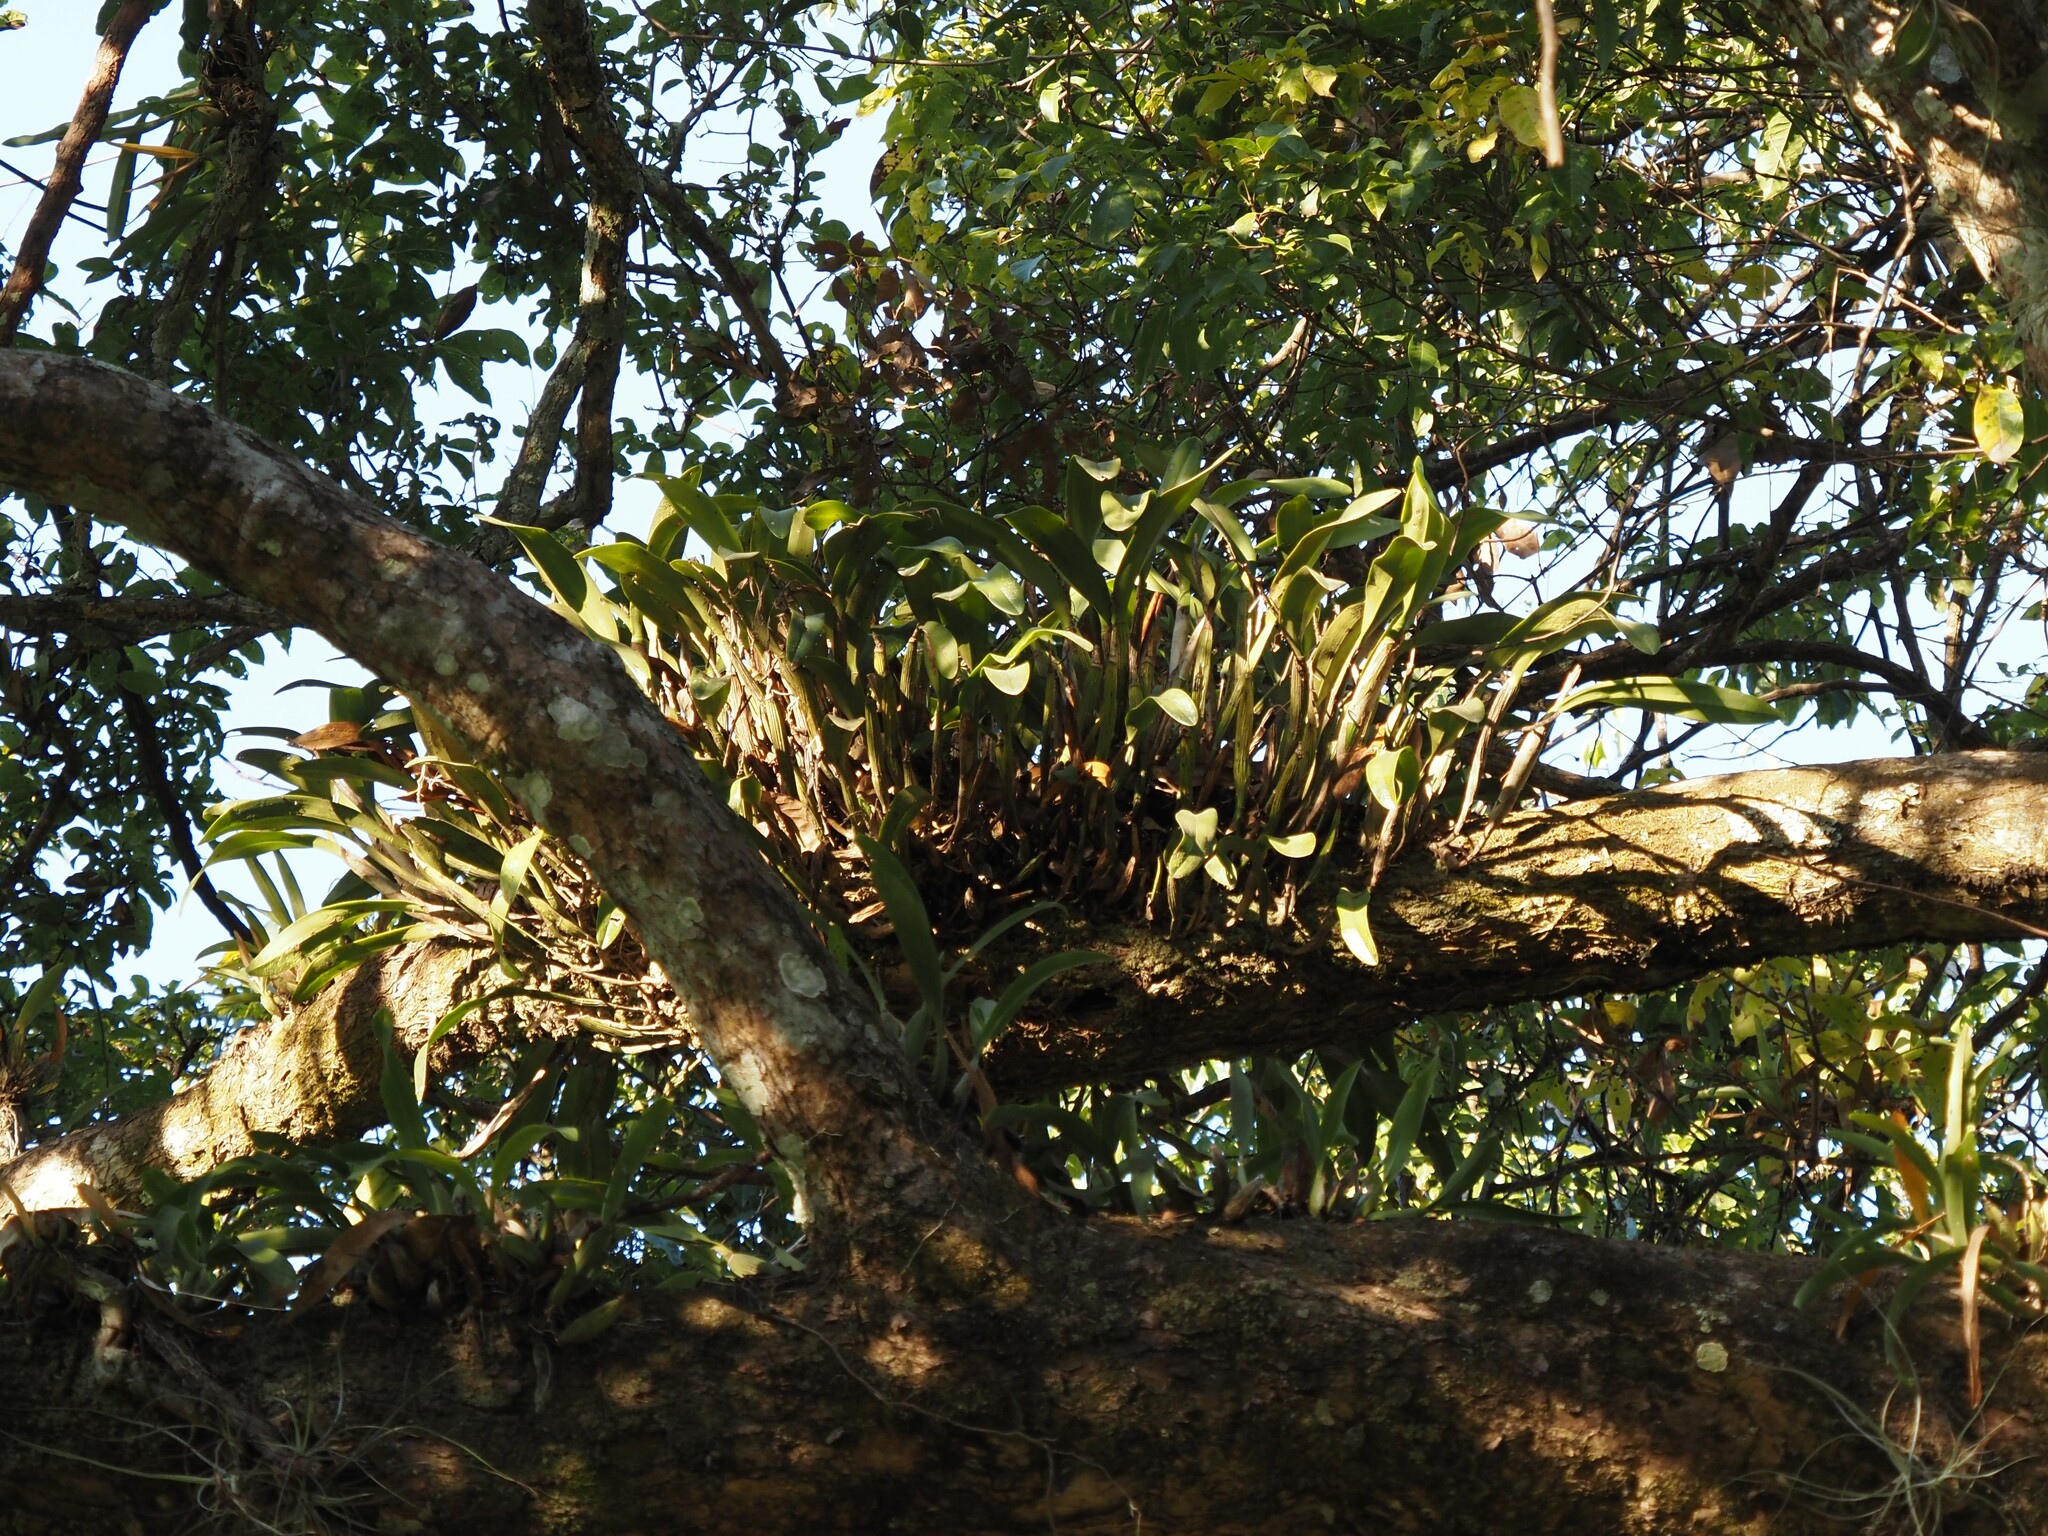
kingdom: Plantae
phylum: Tracheophyta
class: Liliopsida
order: Asparagales
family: Orchidaceae
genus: Guarianthe
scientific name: Guarianthe aurantiaca
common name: Orange cattleya
